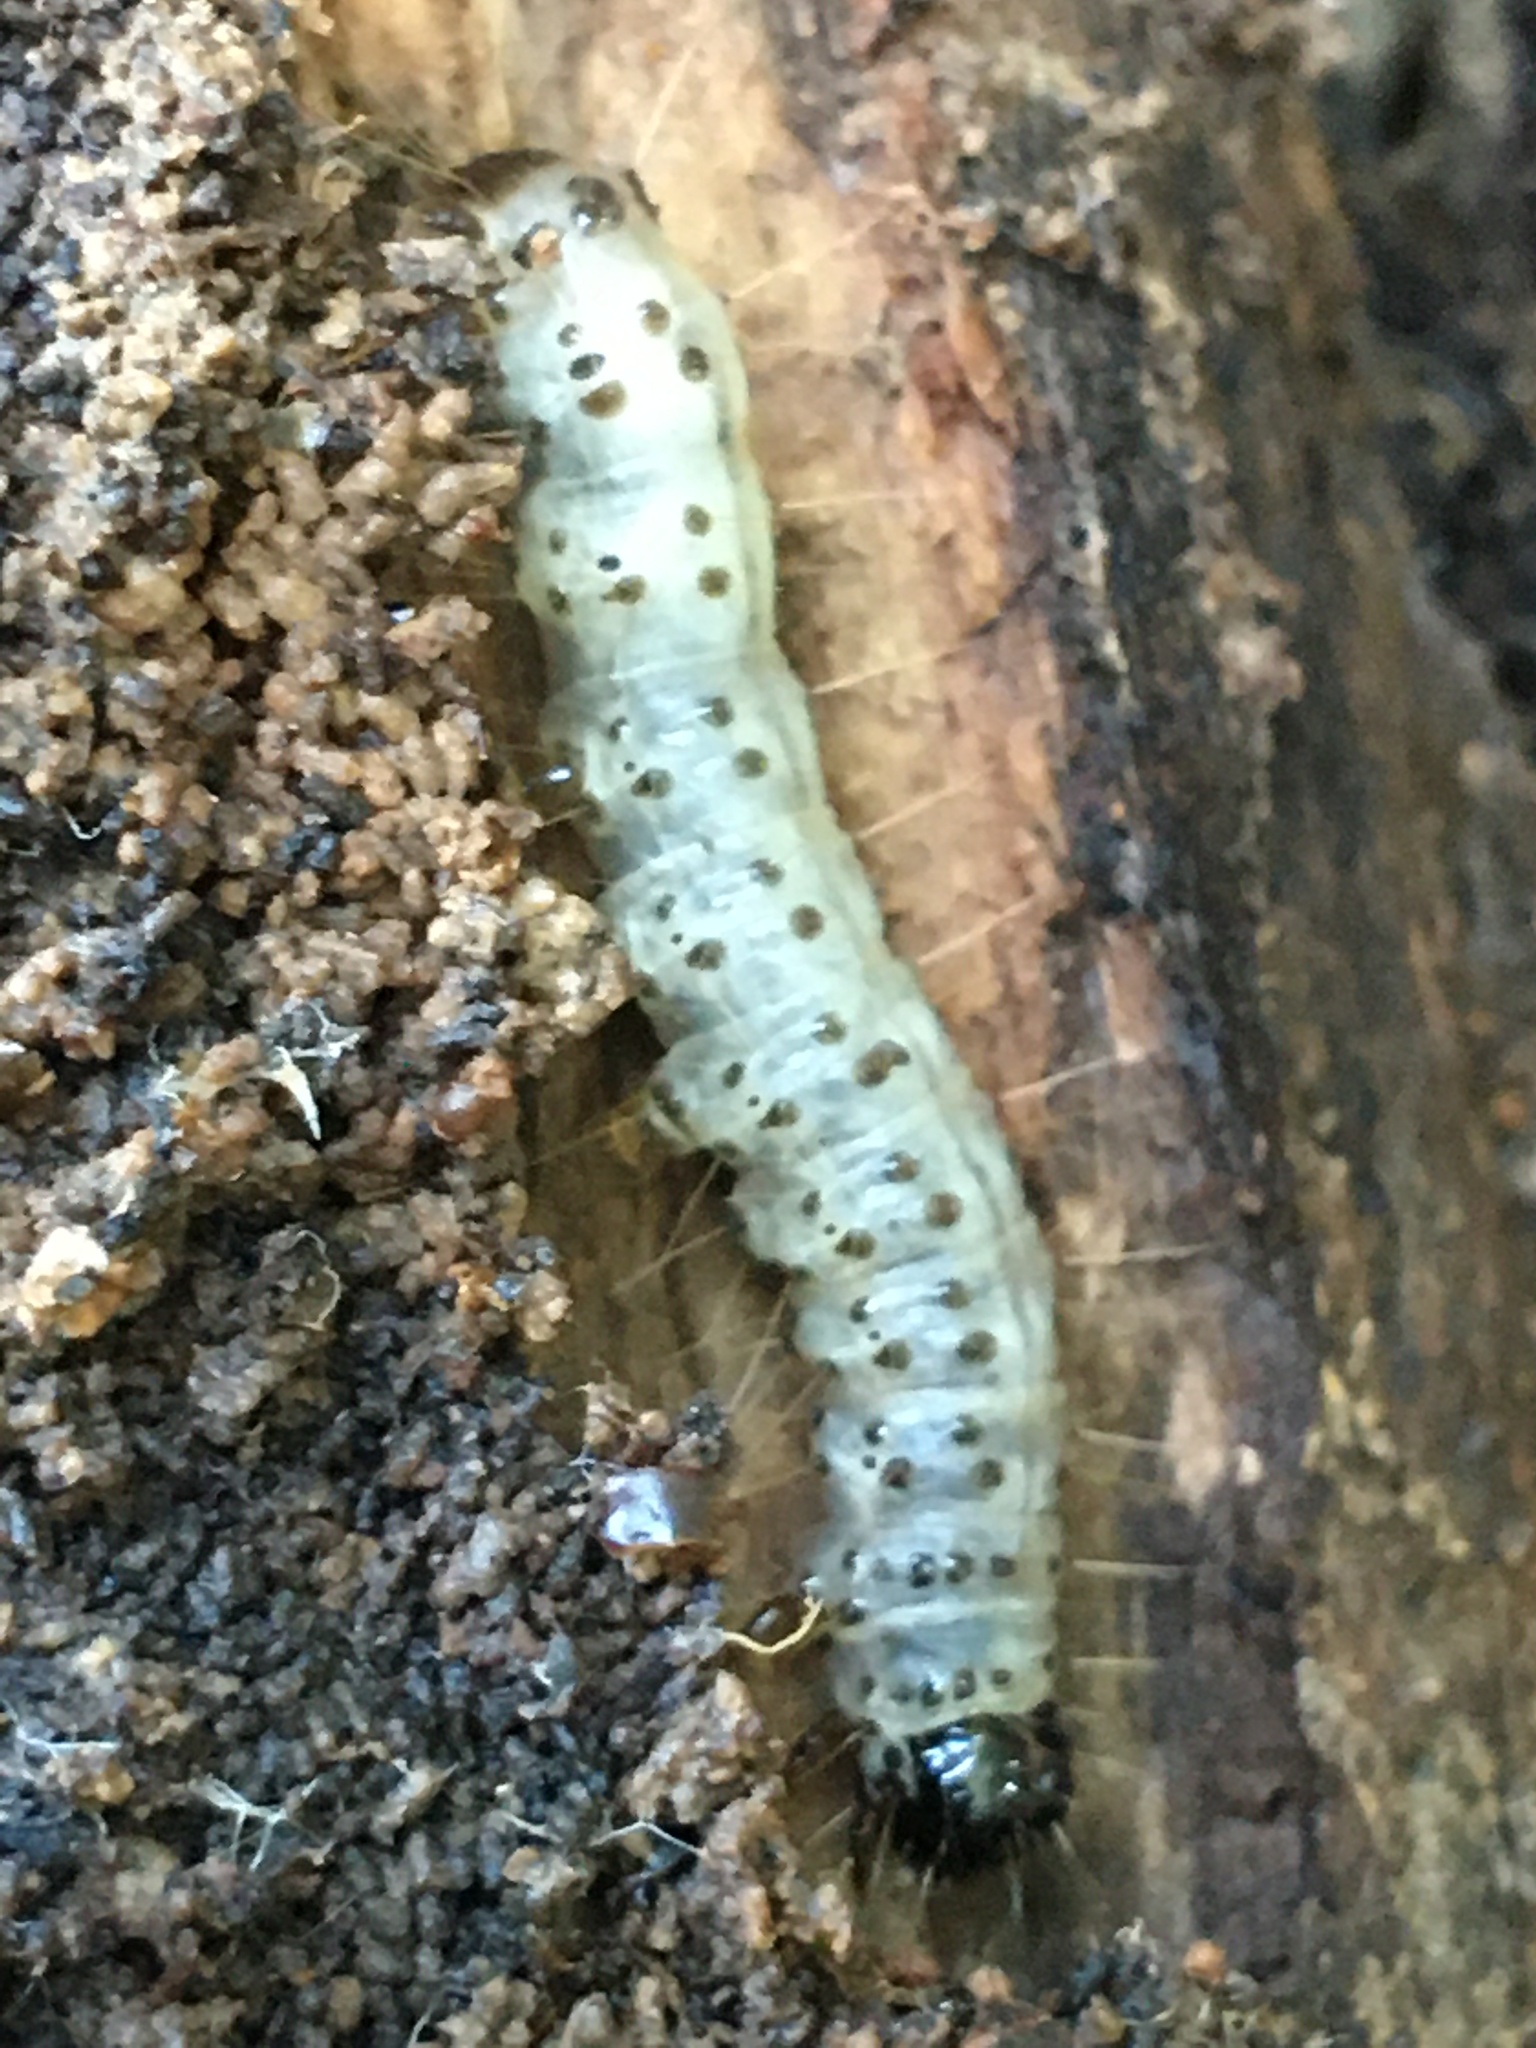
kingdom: Animalia
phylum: Arthropoda
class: Insecta
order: Lepidoptera
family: Erebidae
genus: Scolecocampa
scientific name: Scolecocampa liburna
